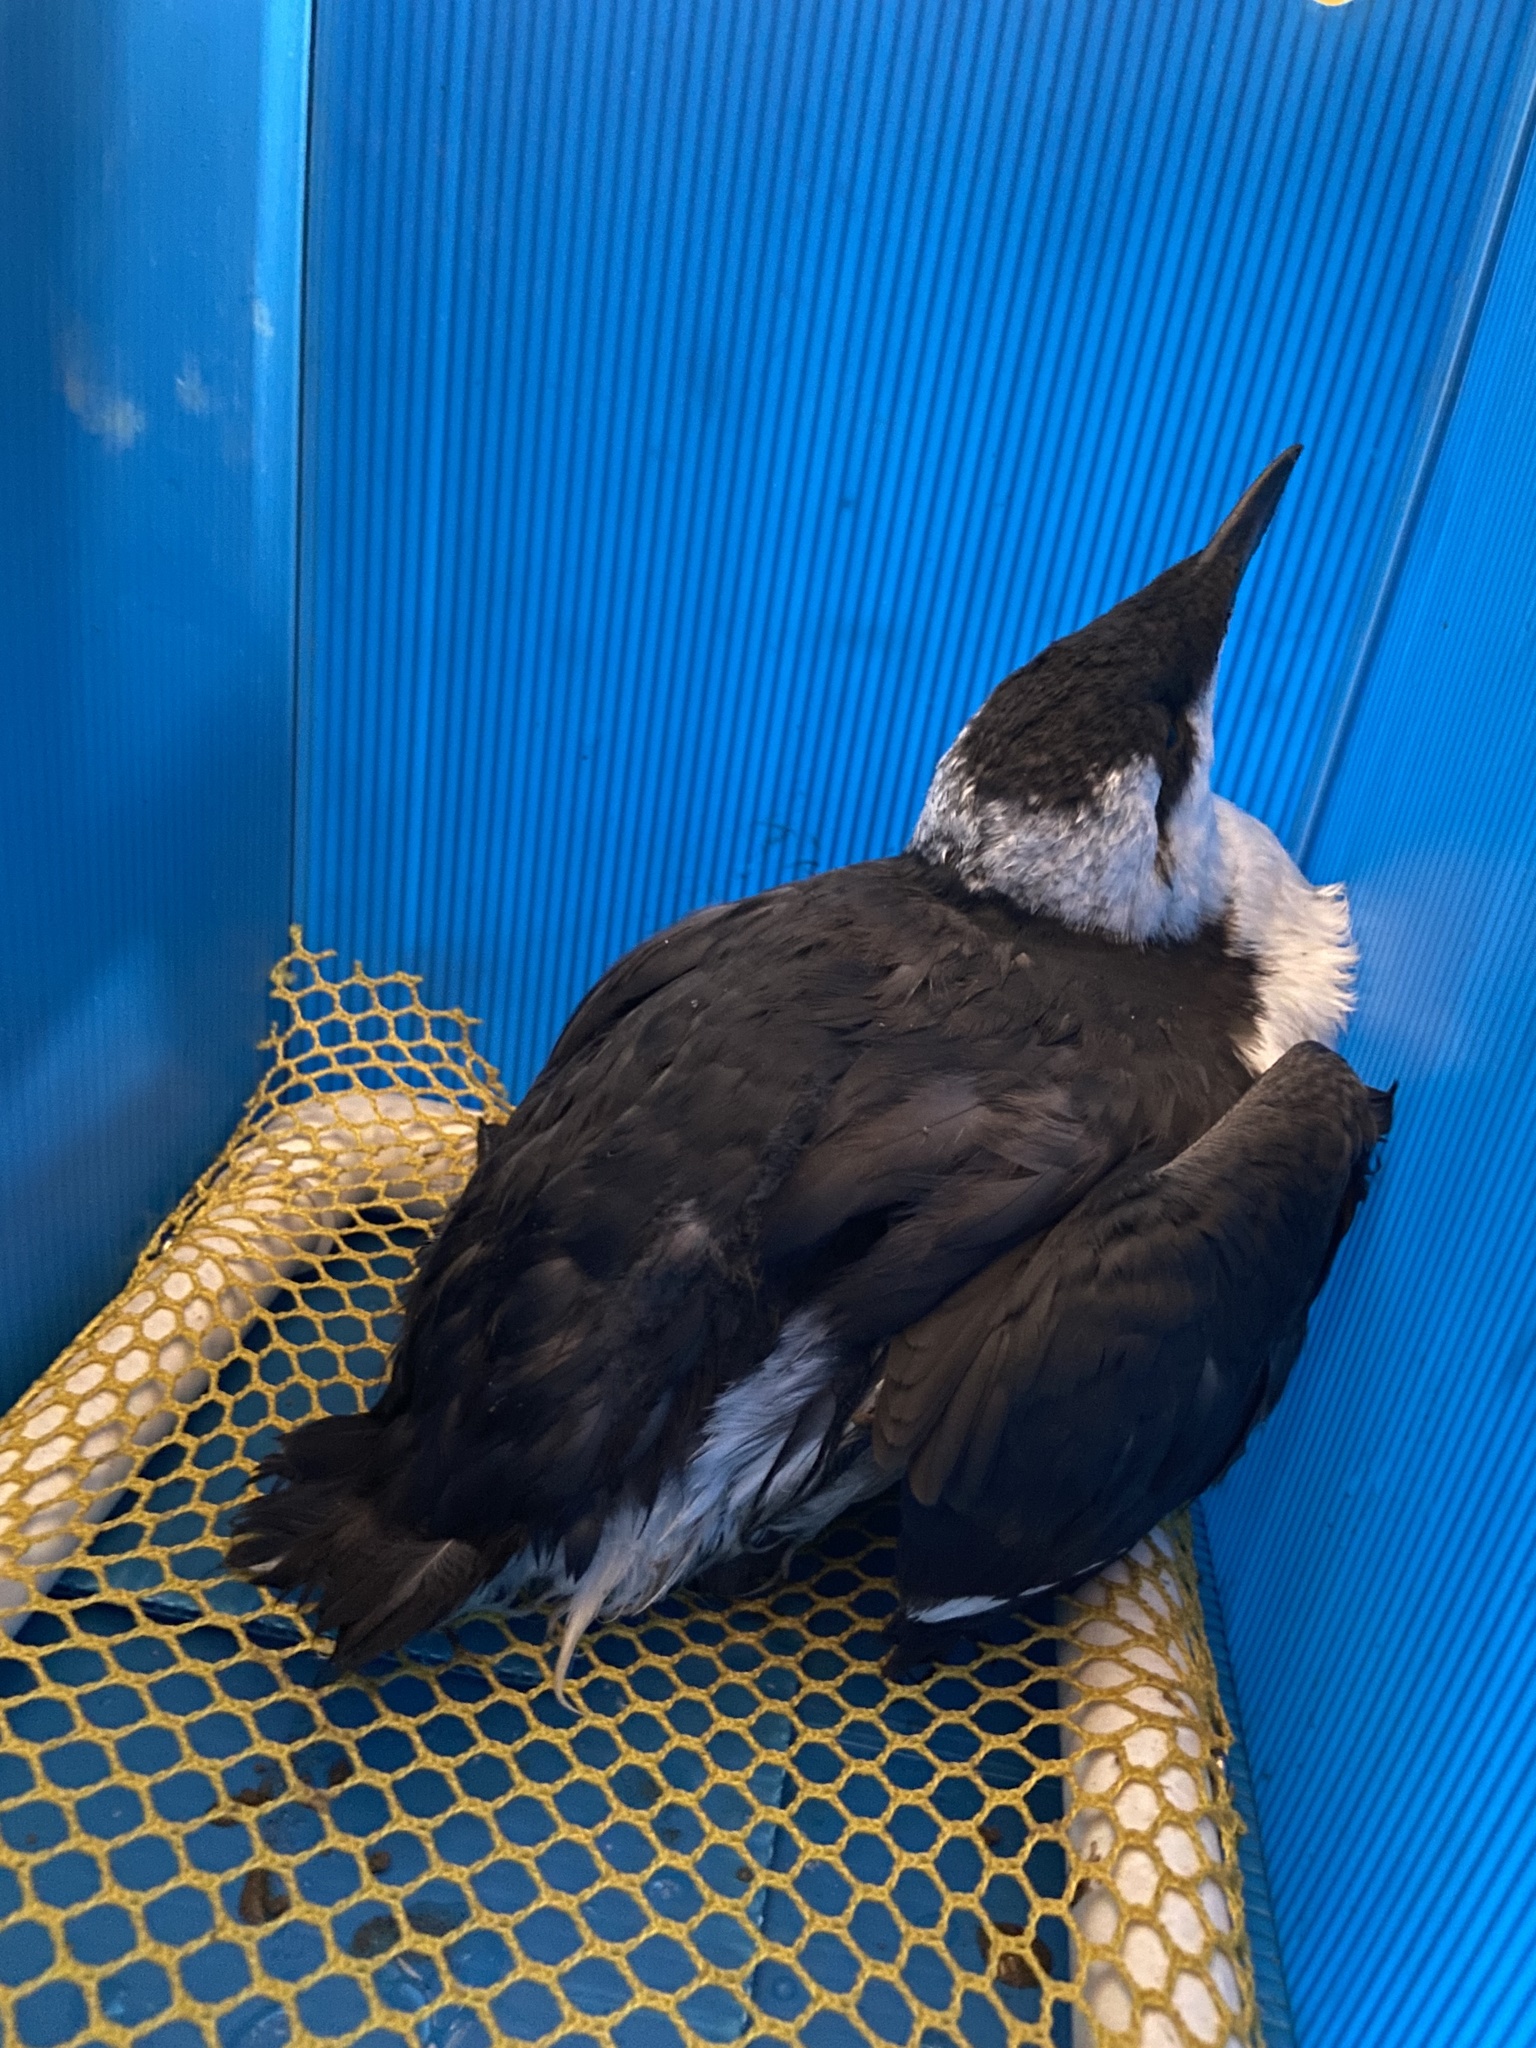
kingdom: Animalia
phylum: Chordata
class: Aves
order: Charadriiformes
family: Alcidae
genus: Uria
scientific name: Uria aalge
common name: Common murre
